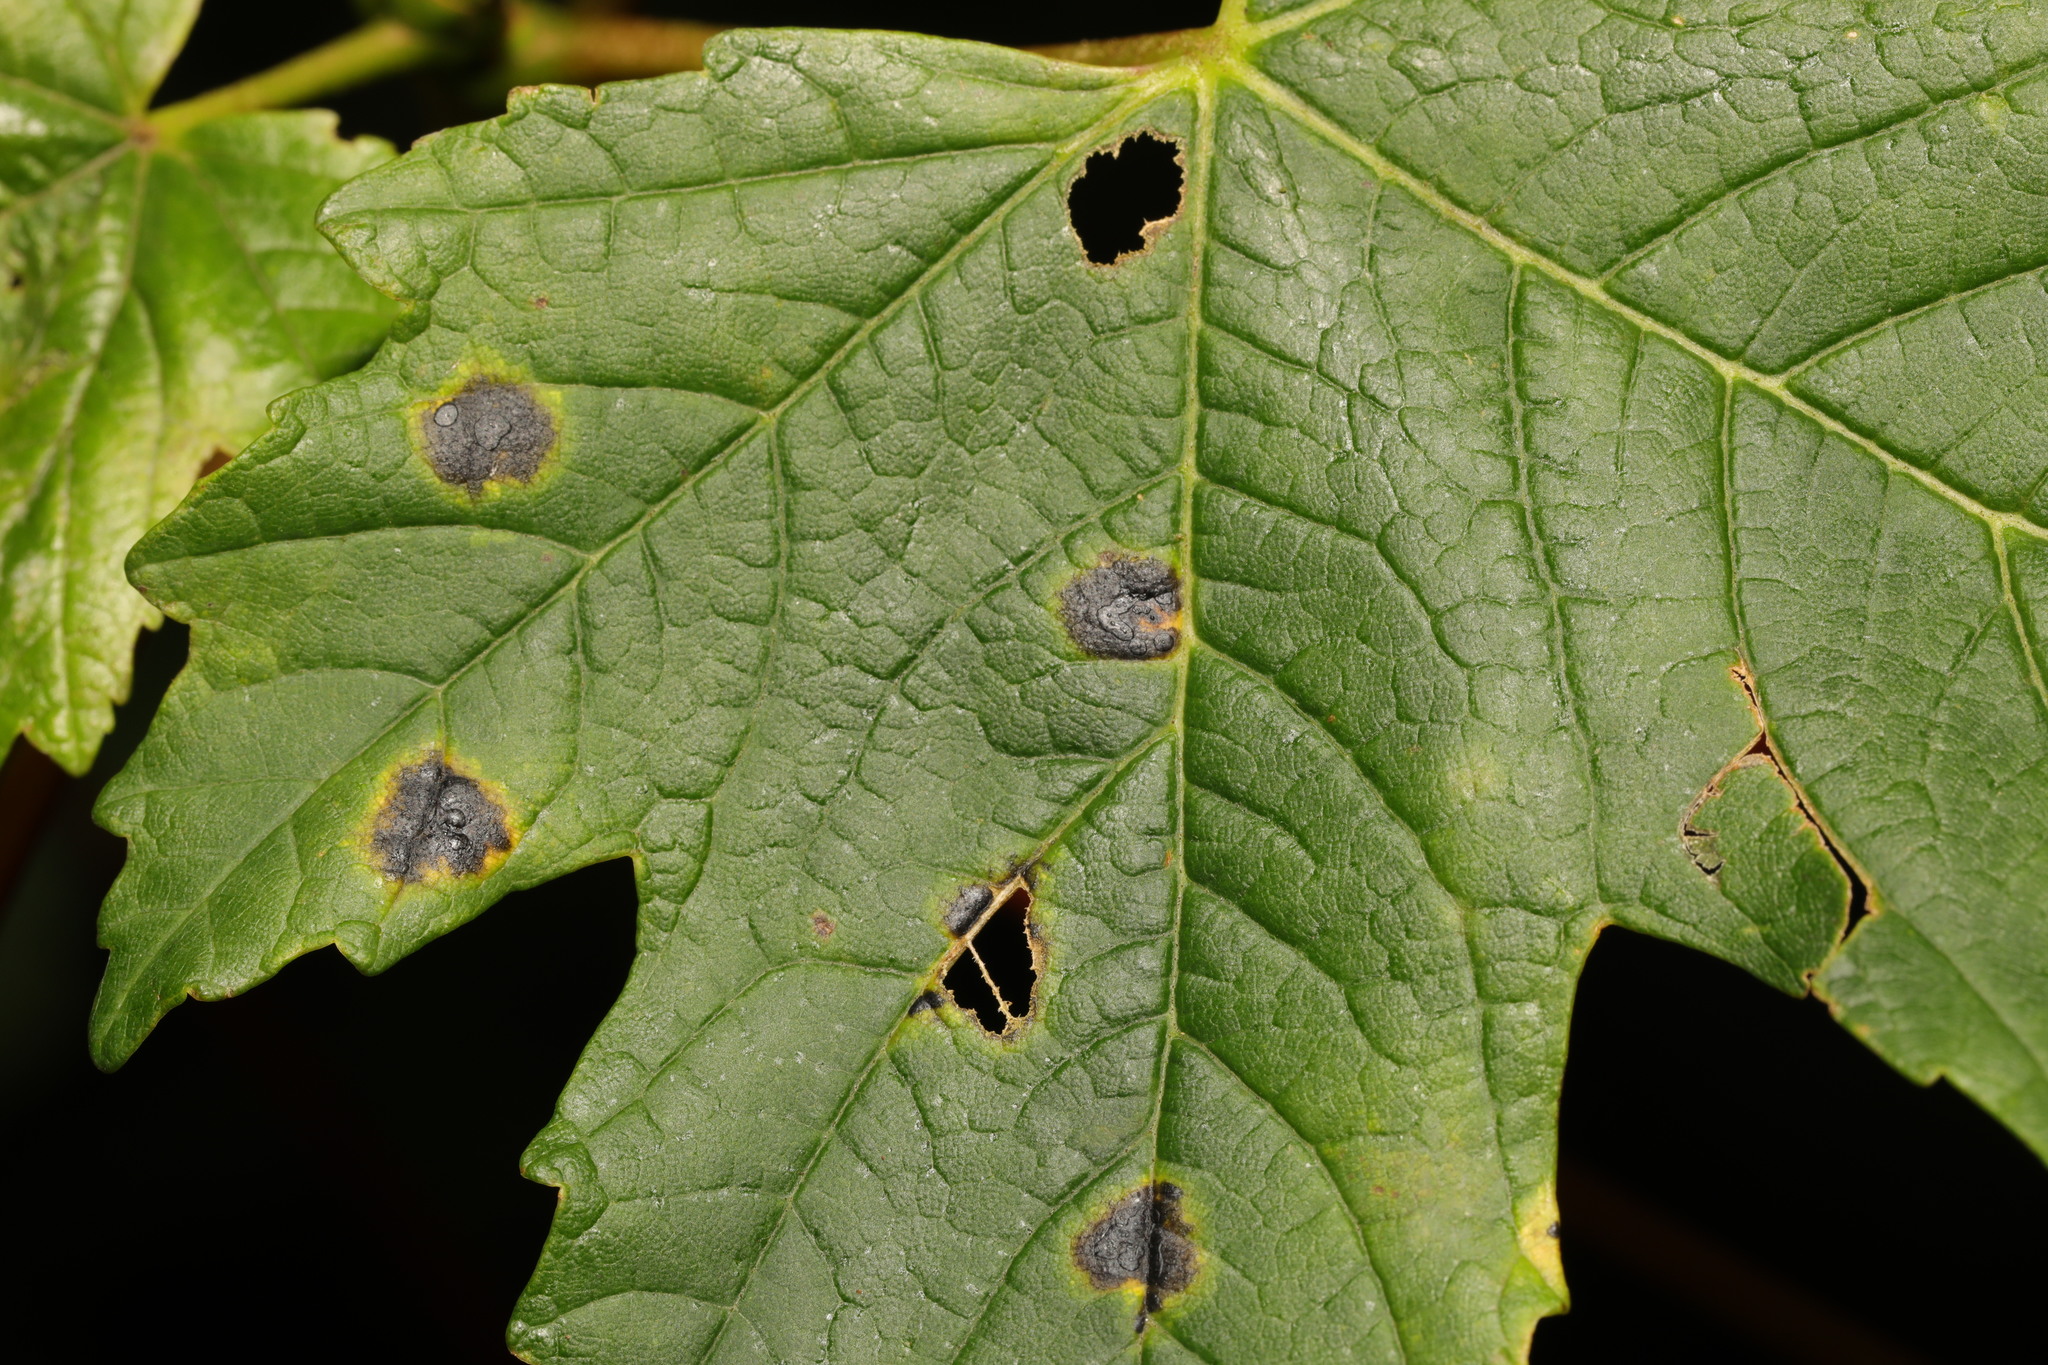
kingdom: Fungi
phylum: Ascomycota
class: Leotiomycetes
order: Rhytismatales
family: Rhytismataceae
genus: Rhytisma
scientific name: Rhytisma acerinum
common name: European tar spot
